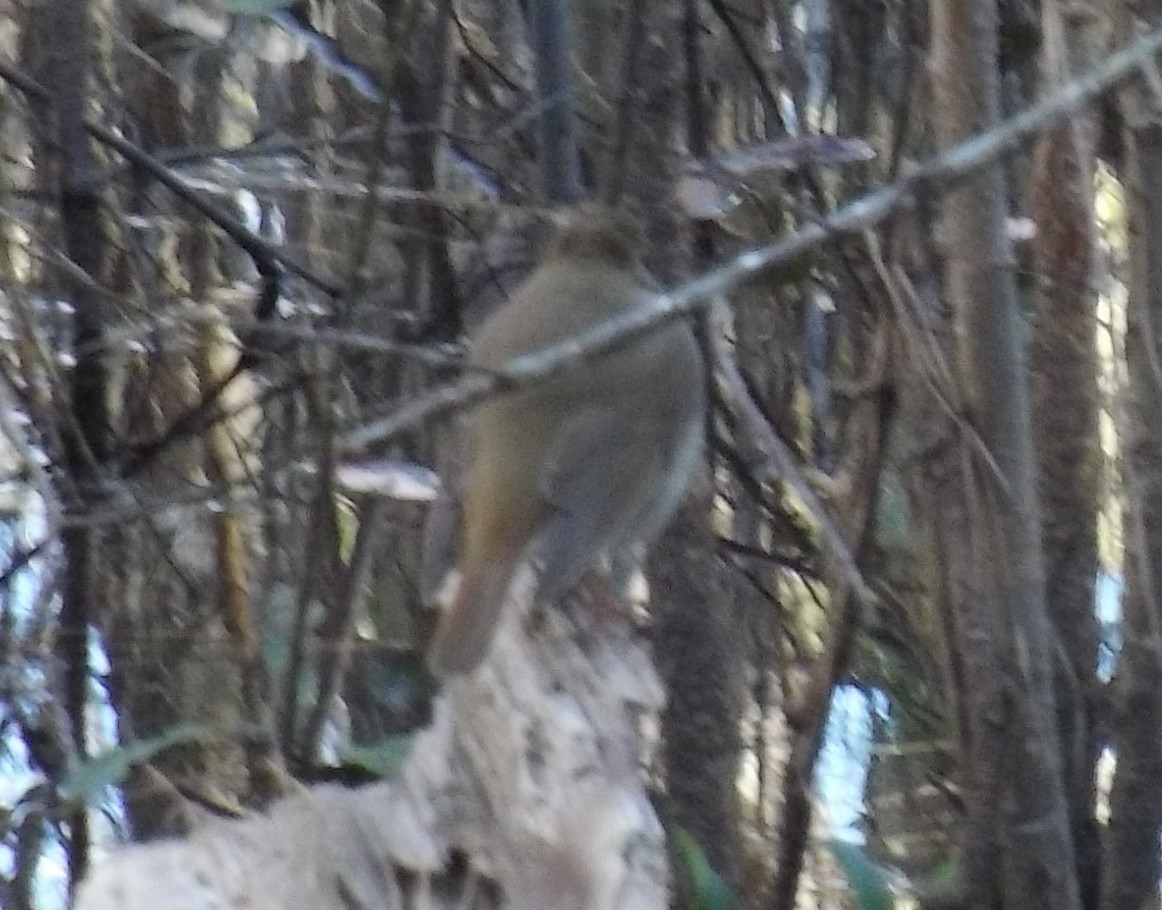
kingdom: Animalia
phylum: Chordata
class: Aves
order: Passeriformes
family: Turdidae
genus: Catharus
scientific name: Catharus guttatus
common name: Hermit thrush
